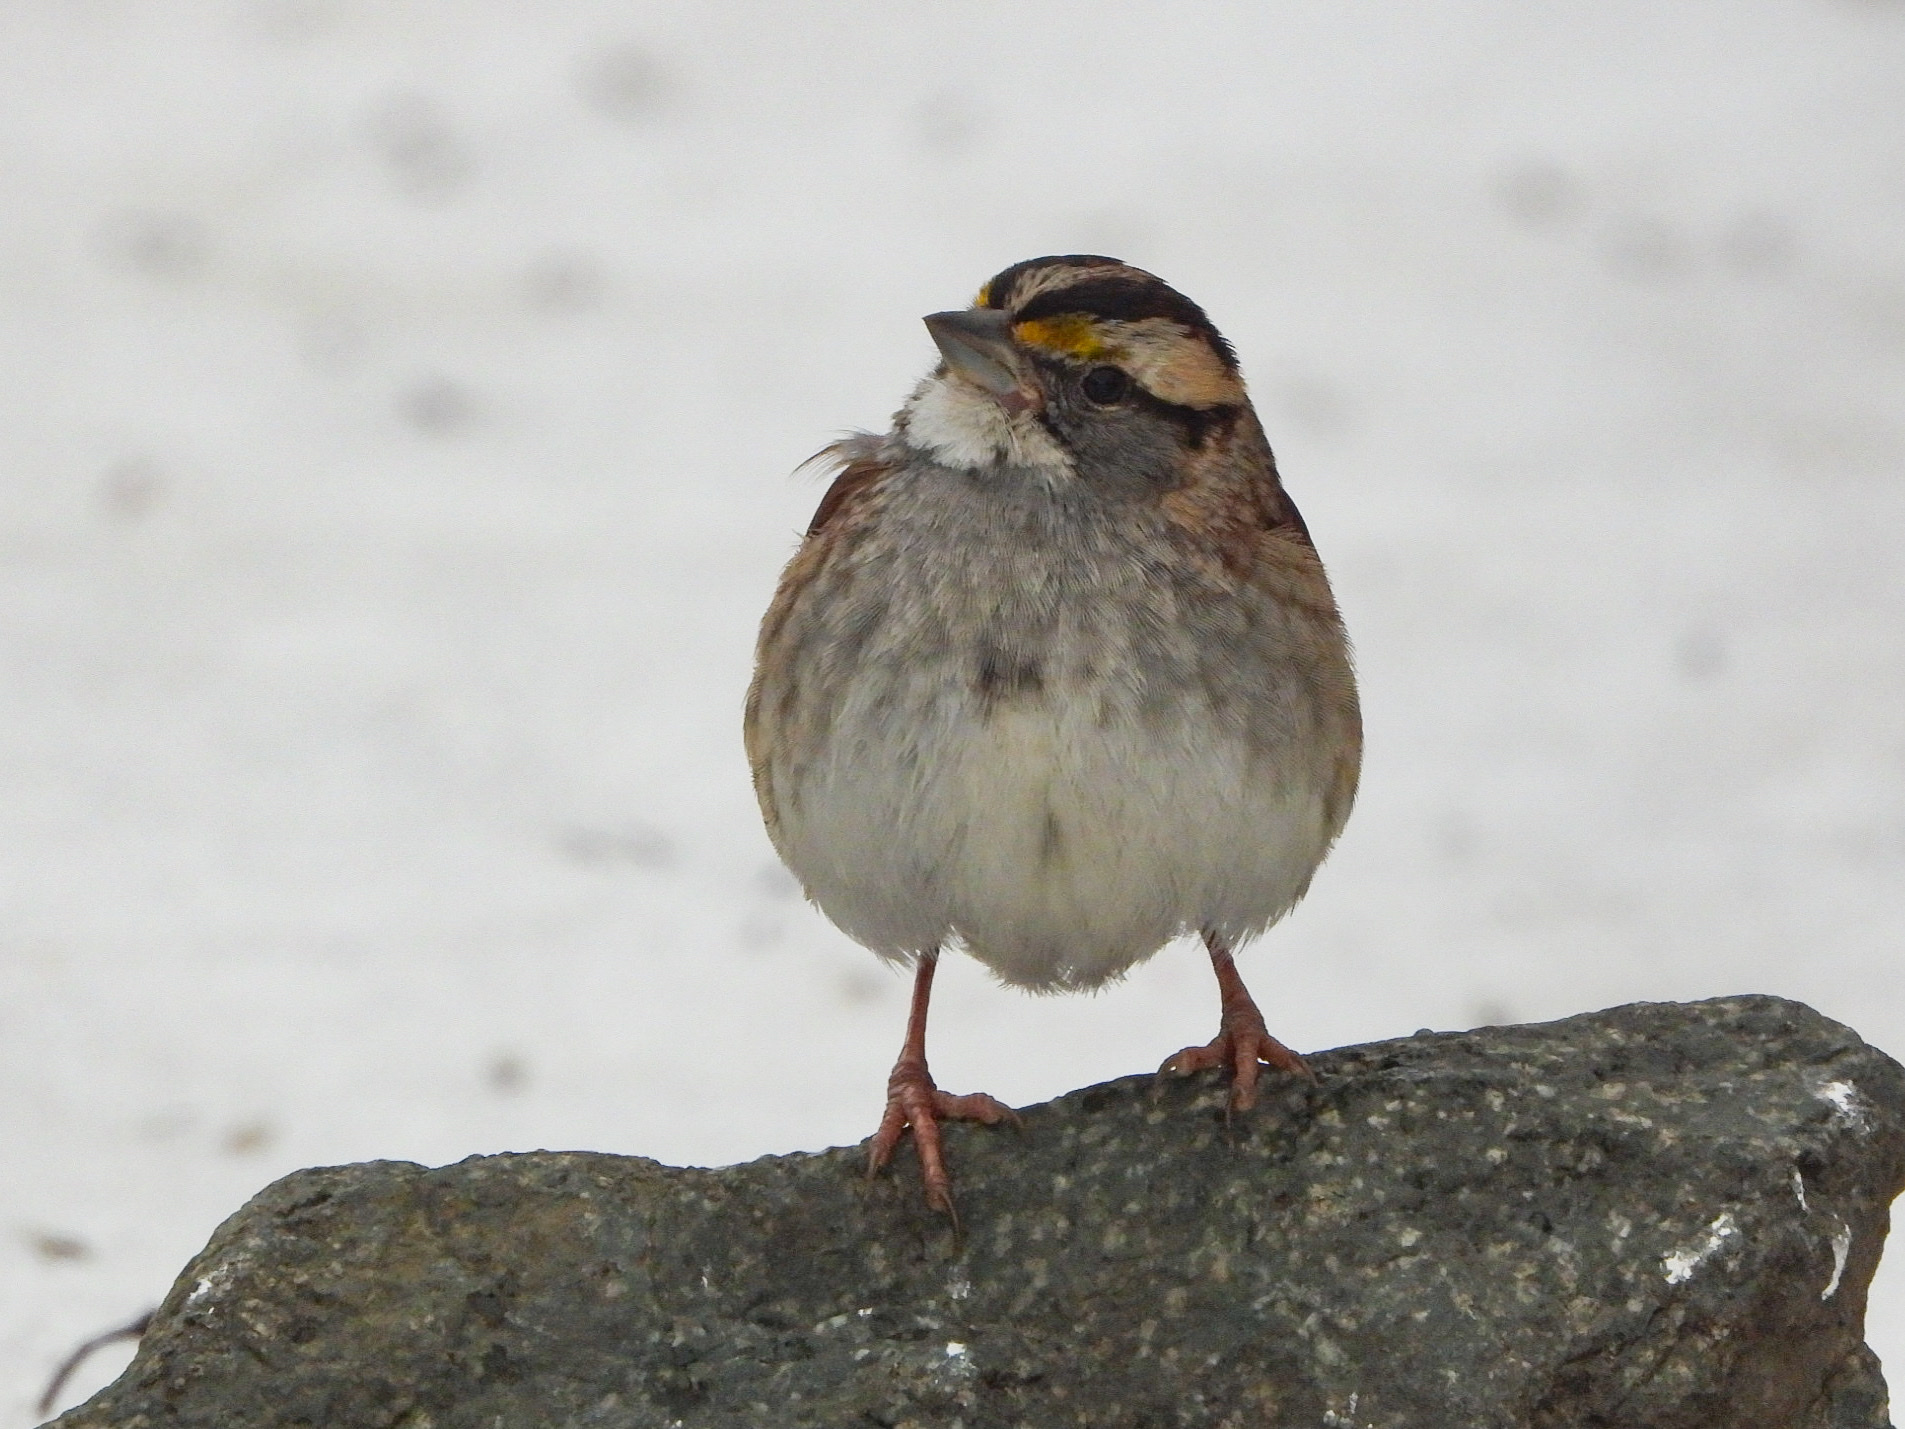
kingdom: Animalia
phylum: Chordata
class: Aves
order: Passeriformes
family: Passerellidae
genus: Zonotrichia
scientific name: Zonotrichia albicollis
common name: White-throated sparrow
